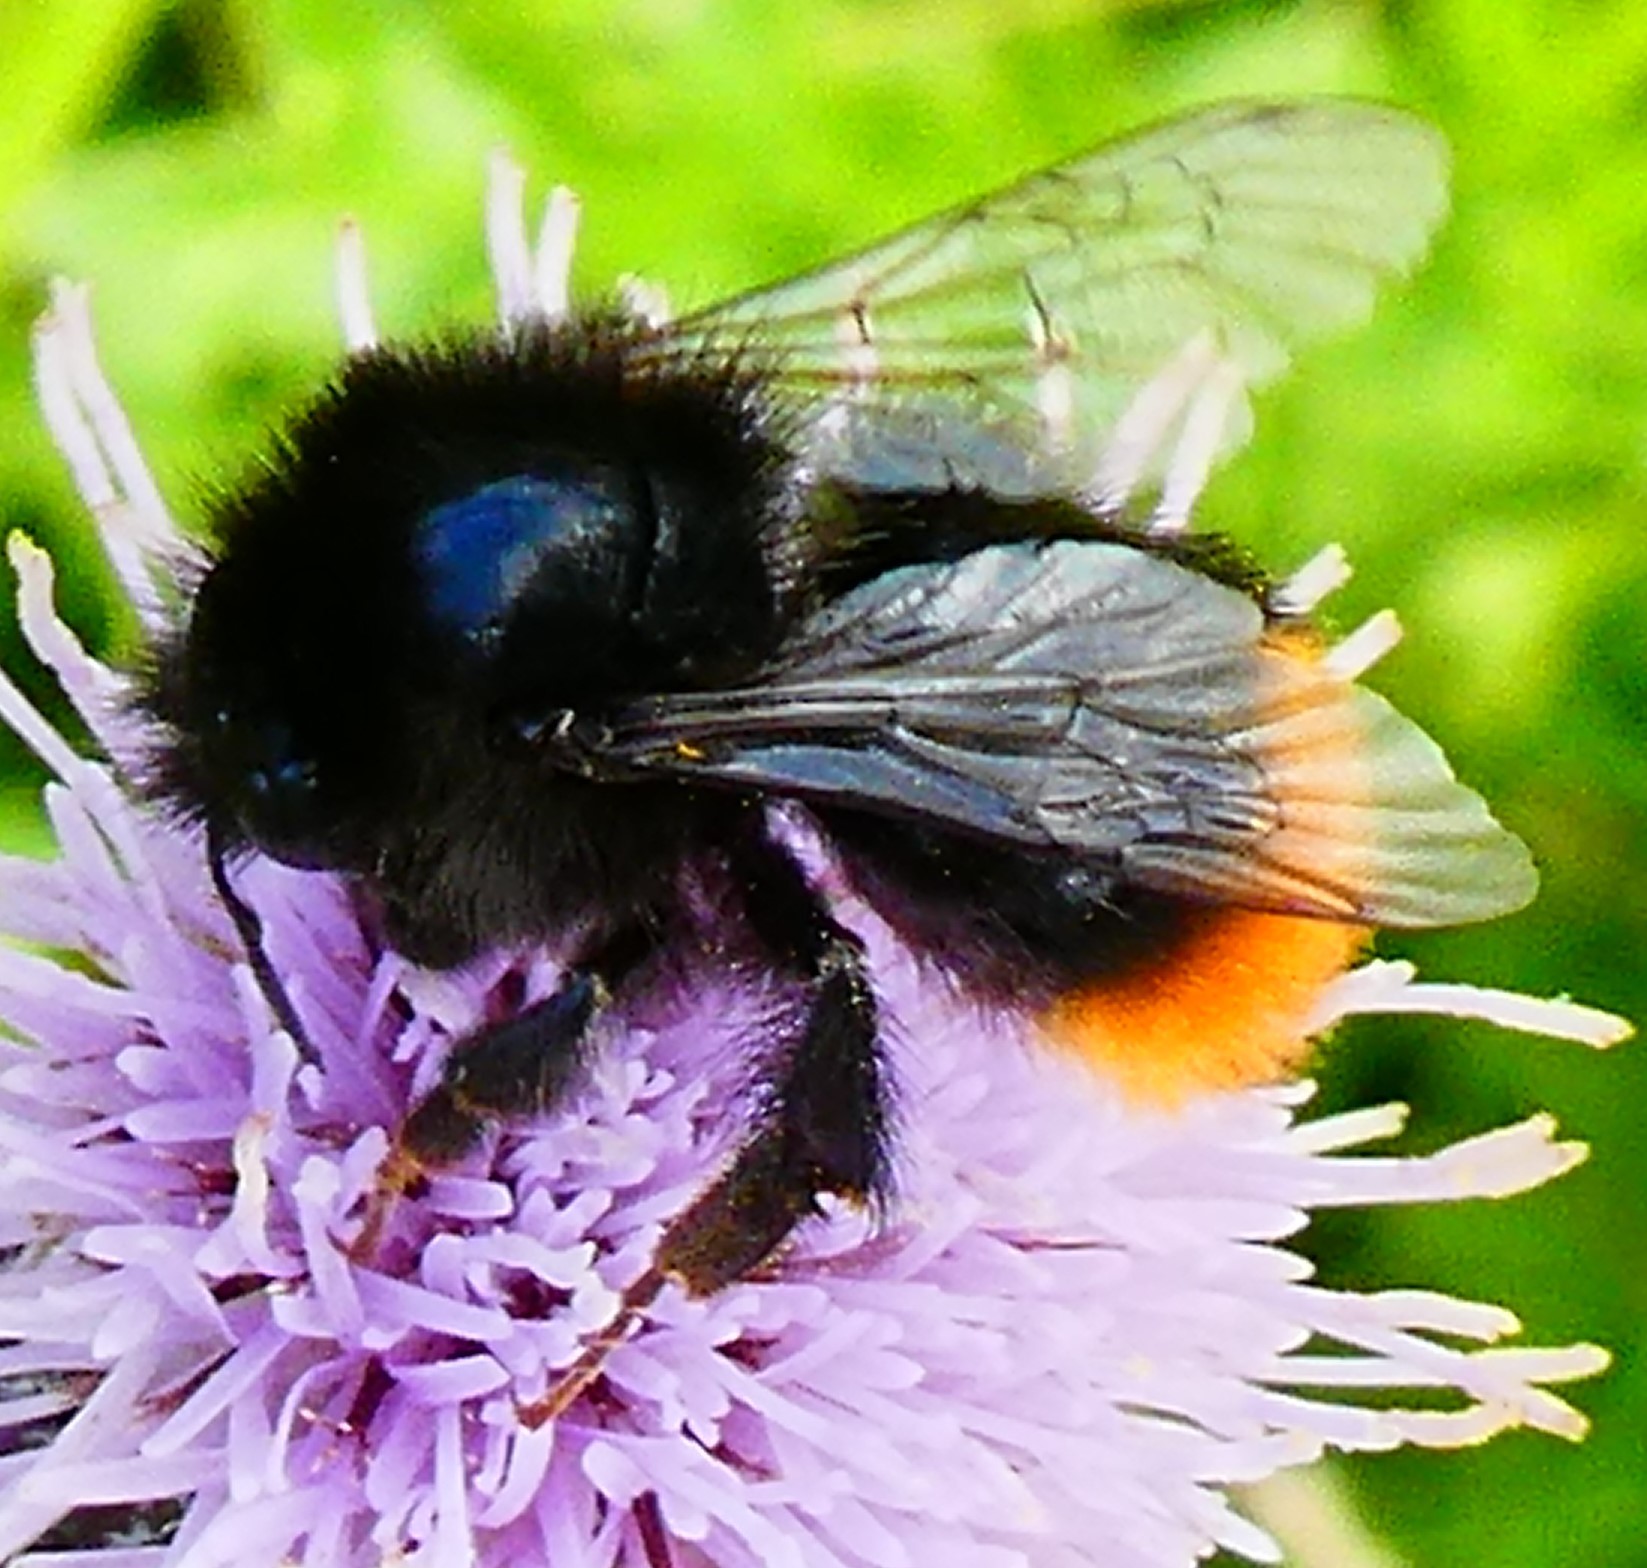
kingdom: Animalia
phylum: Arthropoda
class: Insecta
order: Hymenoptera
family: Apidae
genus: Bombus
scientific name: Bombus lapidarius
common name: Large red-tailed humble-bee
